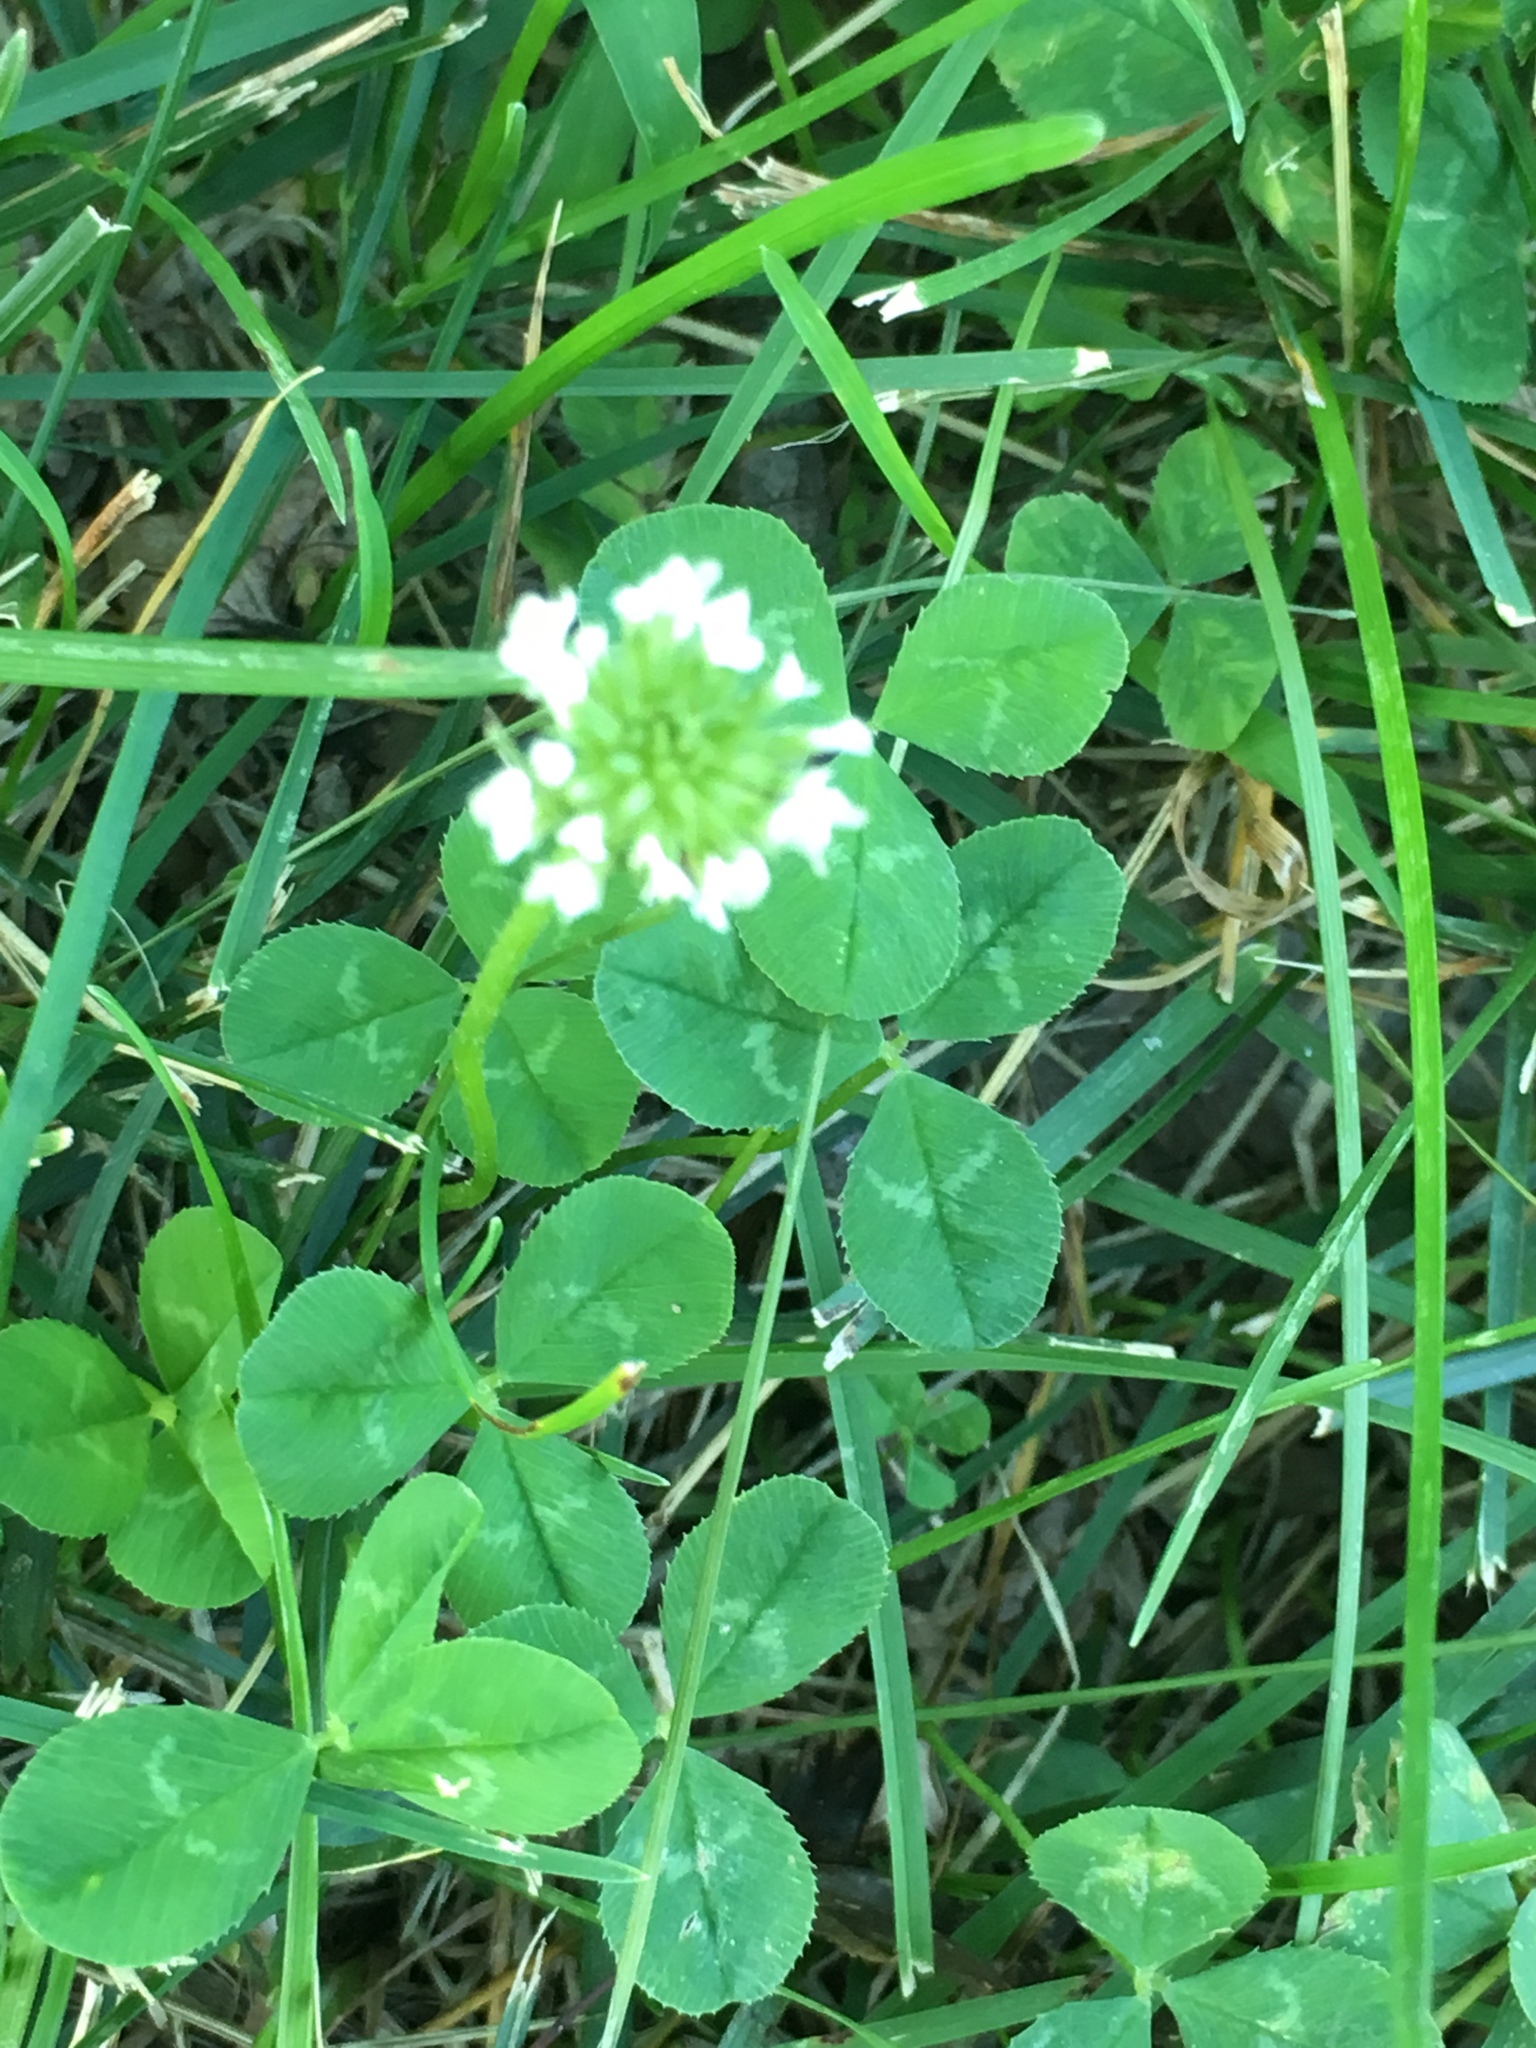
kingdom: Plantae
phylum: Tracheophyta
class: Magnoliopsida
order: Fabales
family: Fabaceae
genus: Trifolium
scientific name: Trifolium repens
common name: White clover
